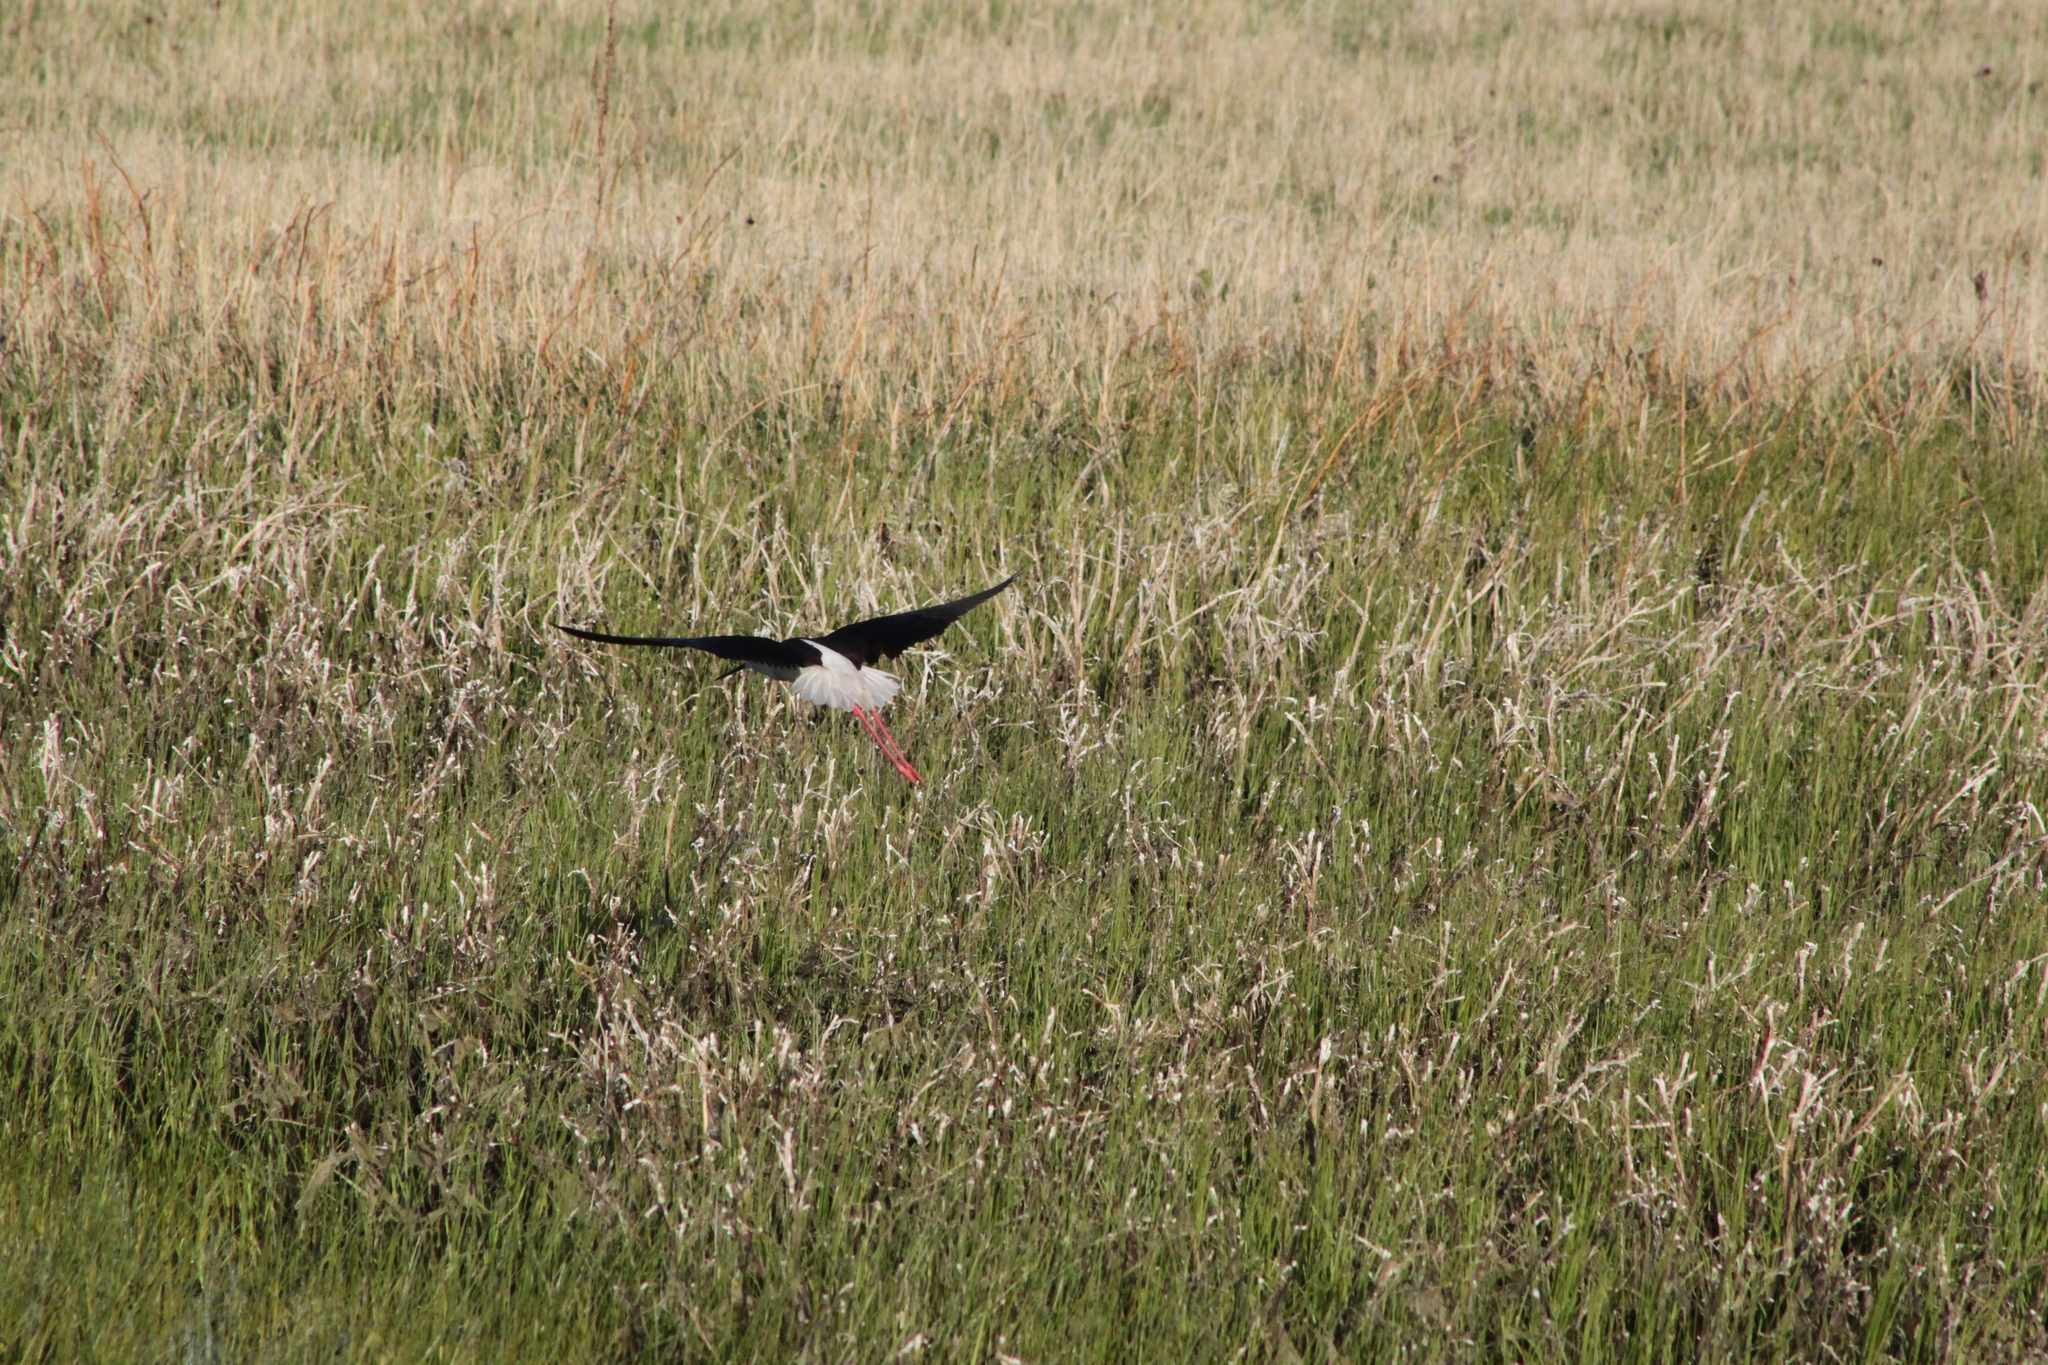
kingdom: Animalia
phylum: Chordata
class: Aves
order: Charadriiformes
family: Recurvirostridae
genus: Himantopus
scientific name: Himantopus himantopus
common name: Black-winged stilt
